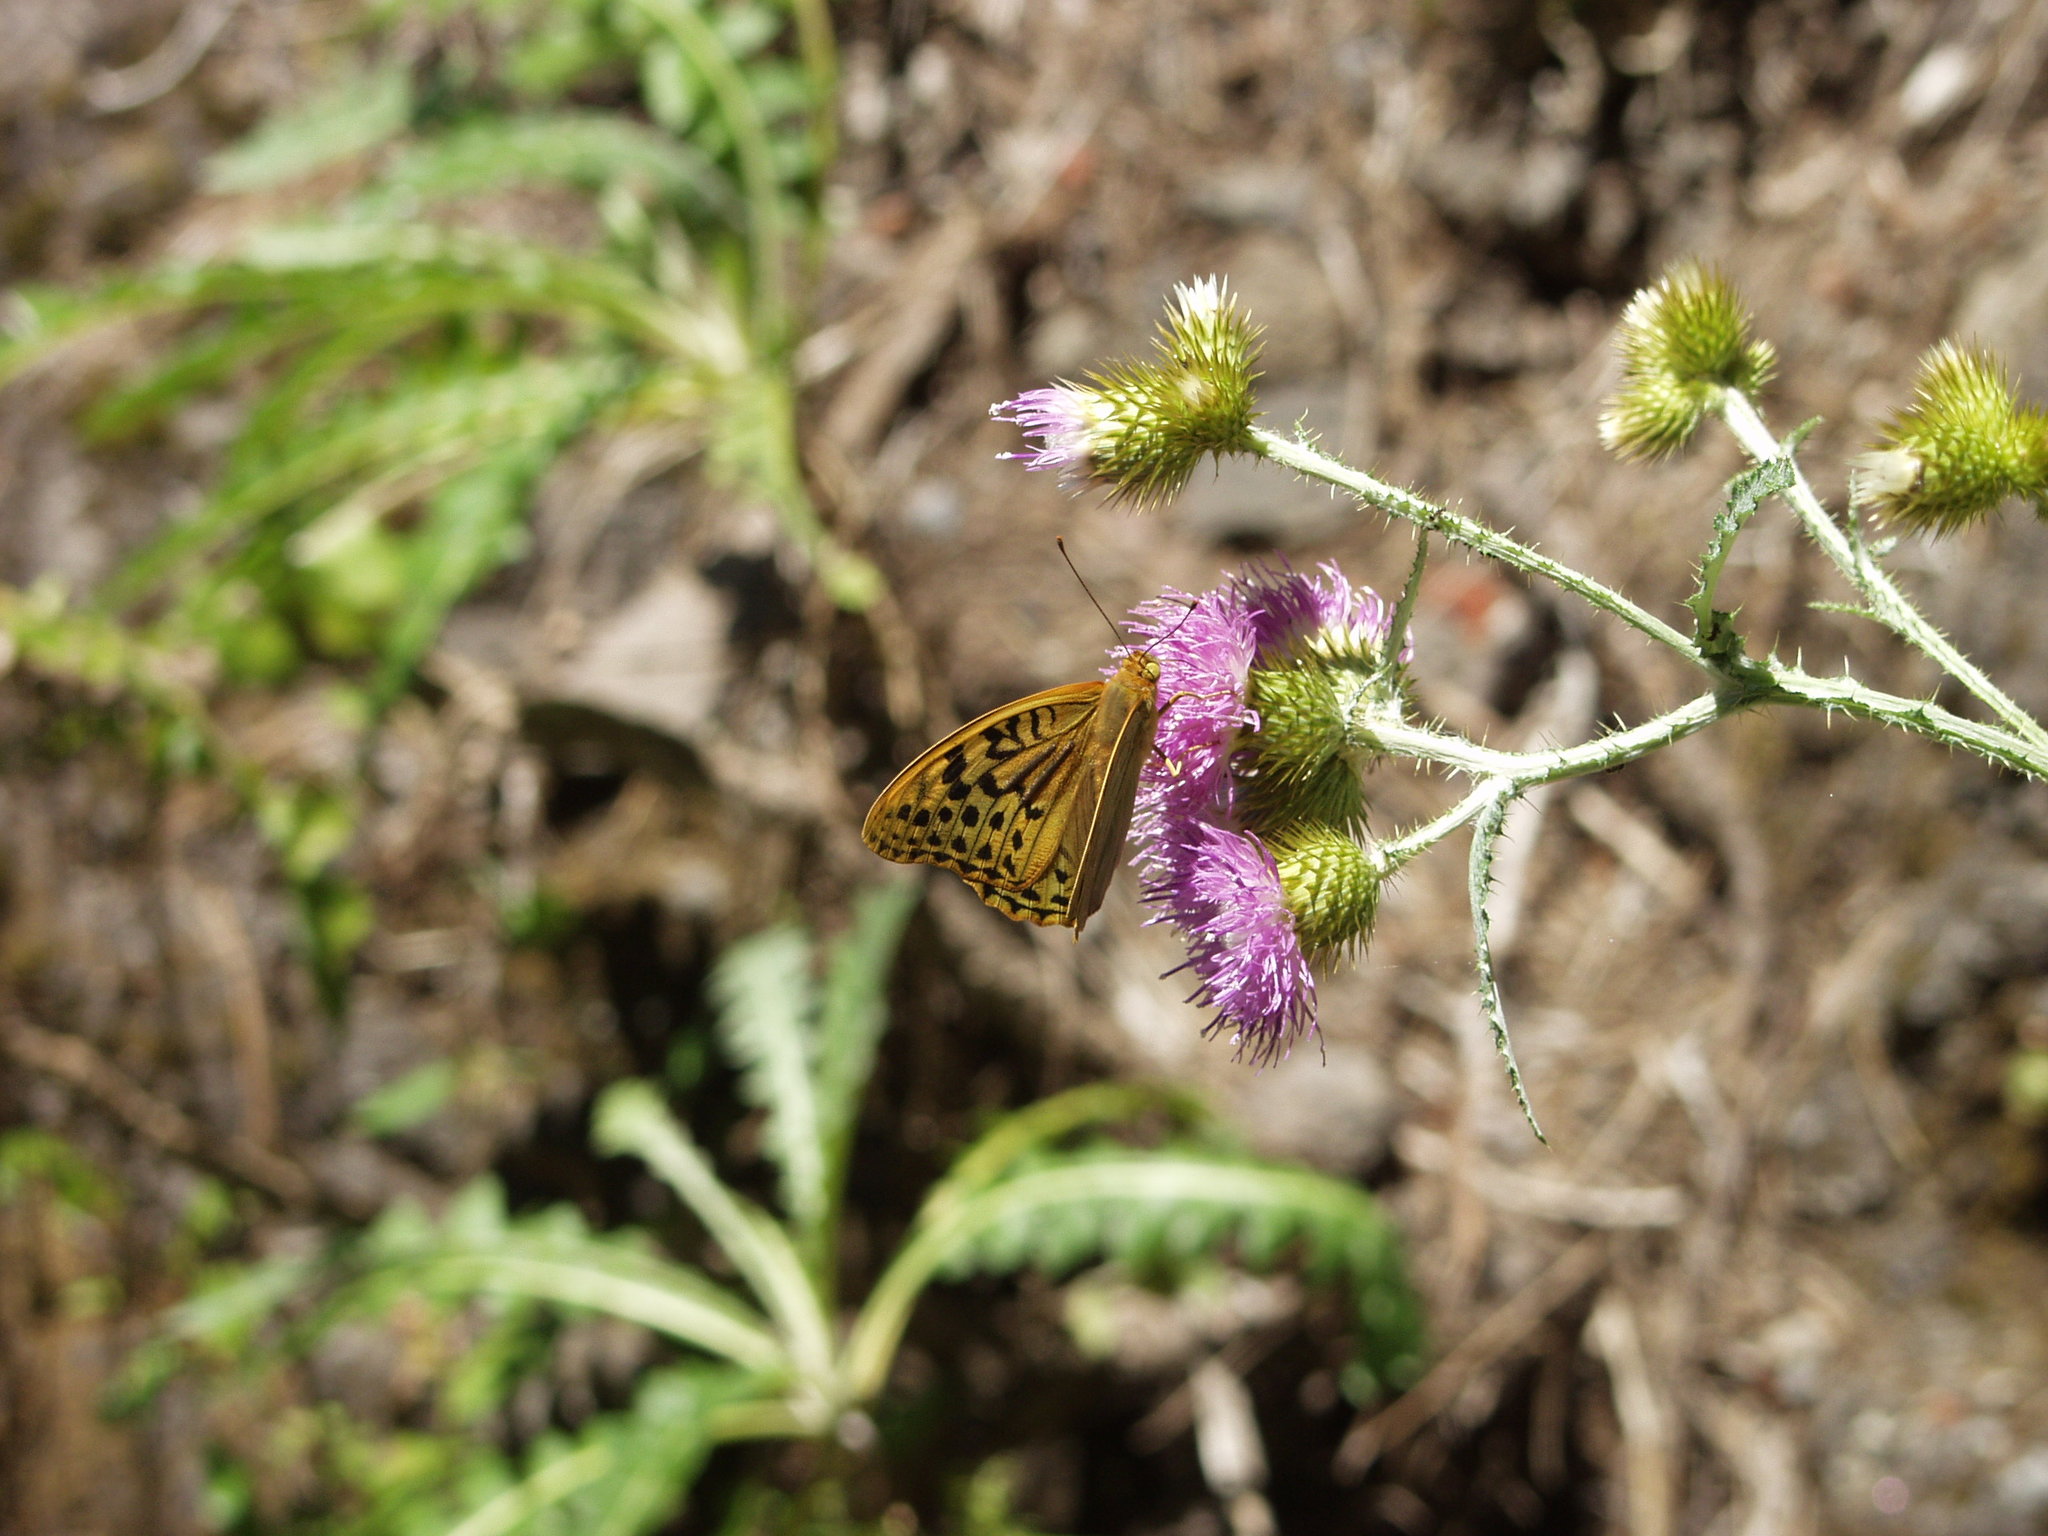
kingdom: Animalia
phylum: Arthropoda
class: Insecta
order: Lepidoptera
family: Nymphalidae
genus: Damora
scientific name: Damora pandora
